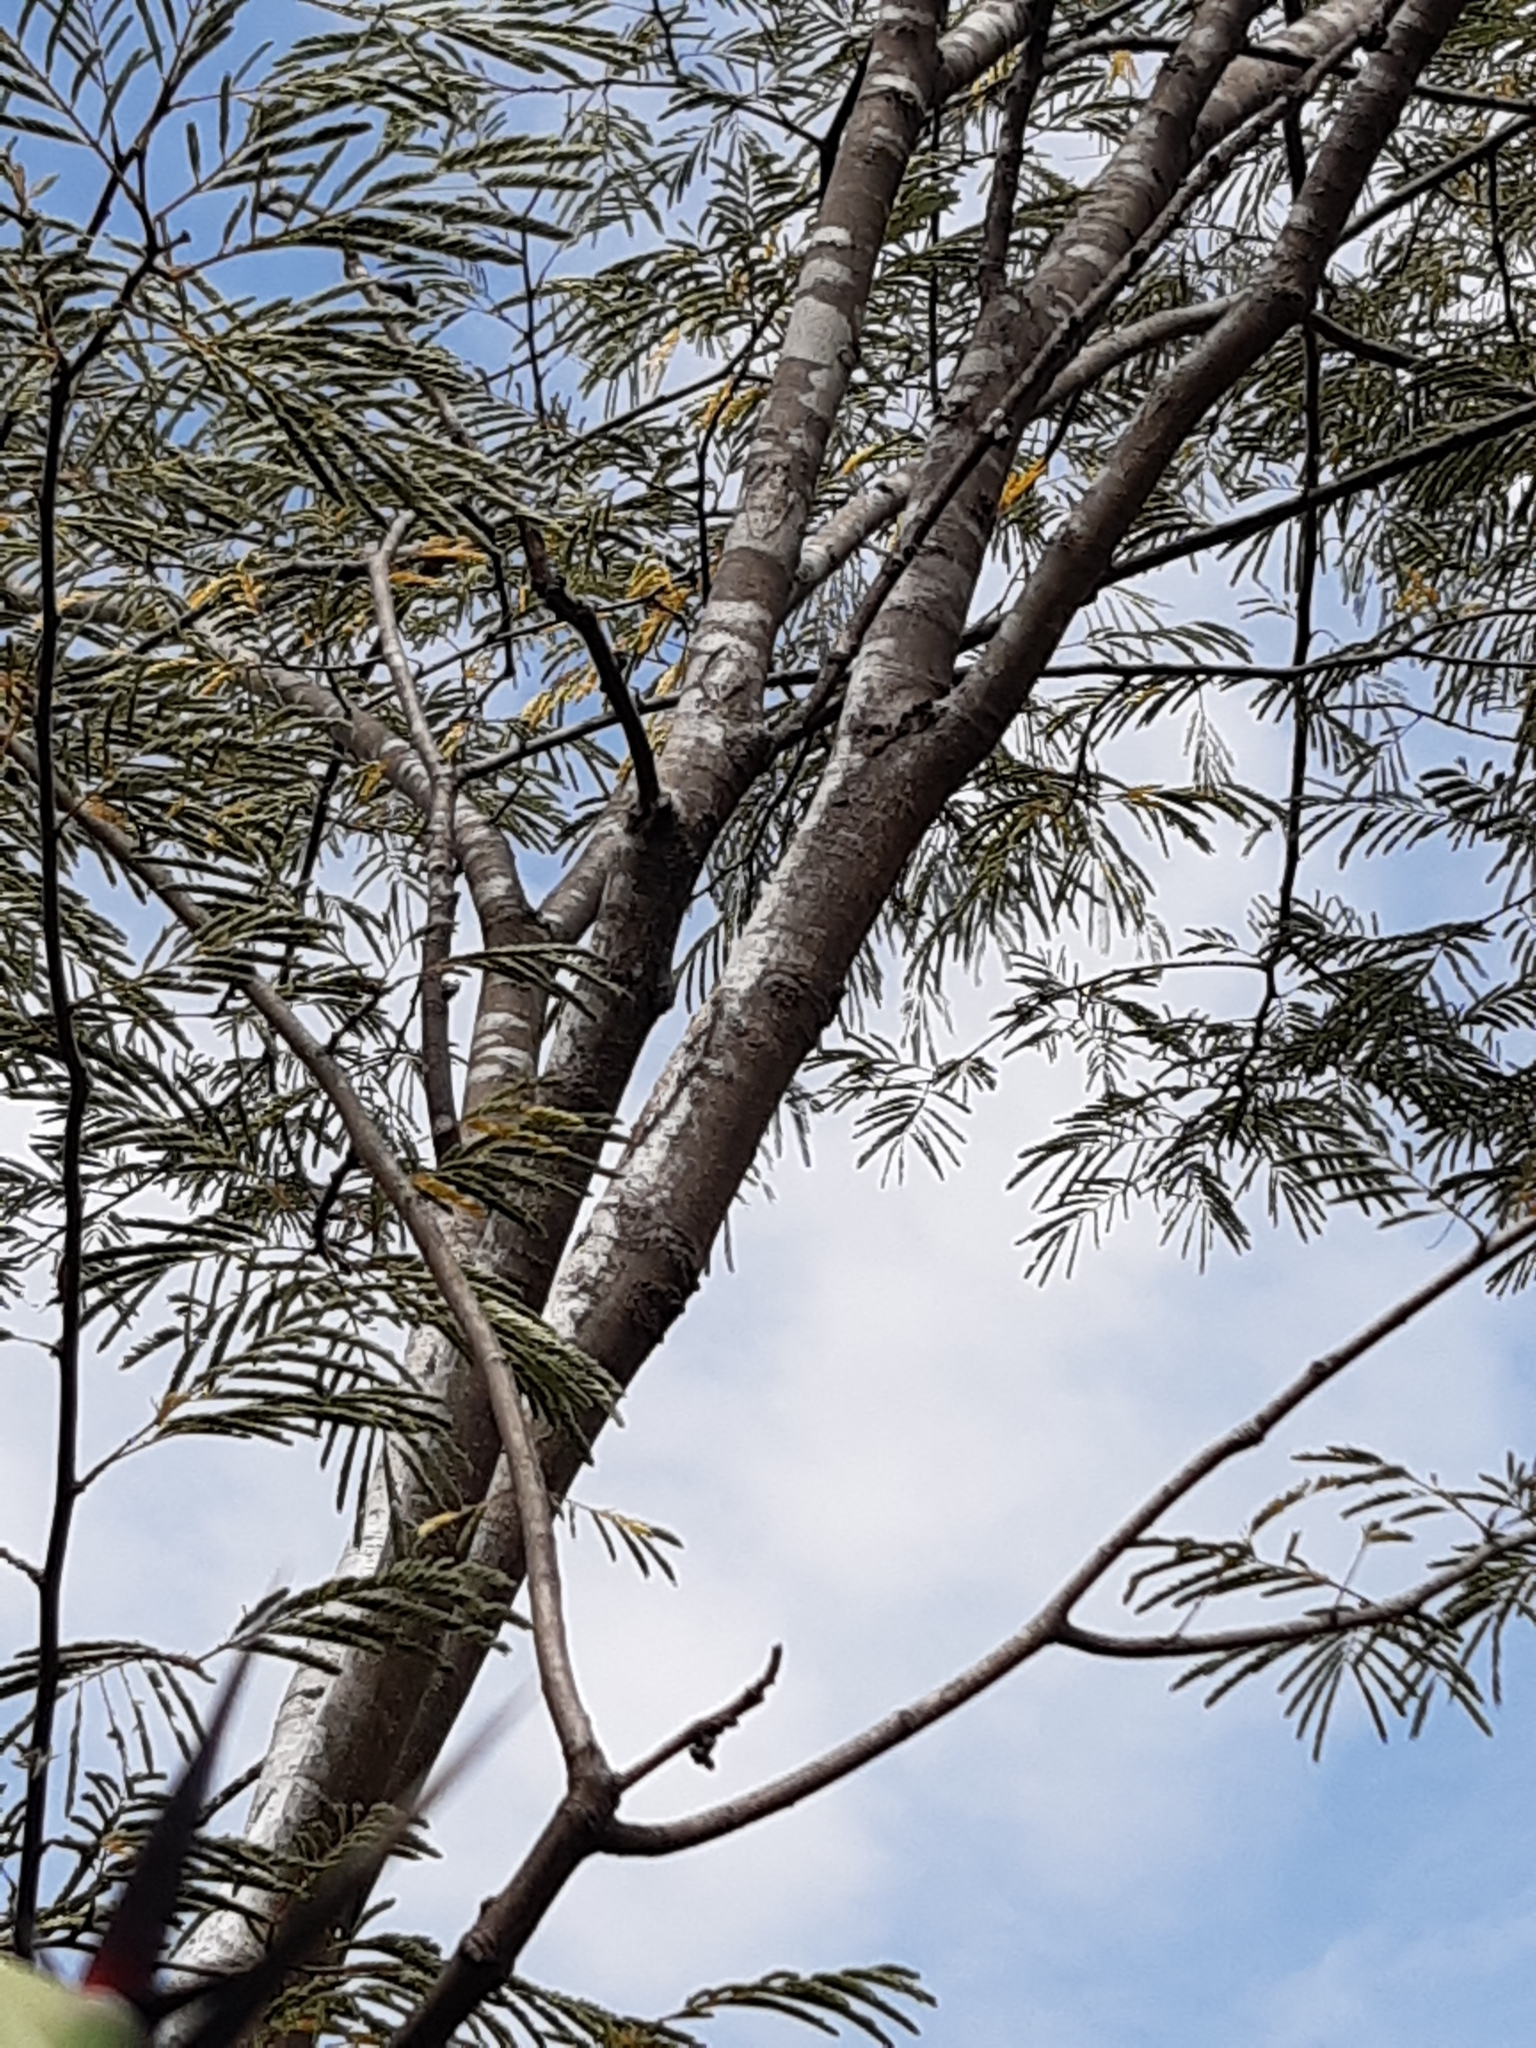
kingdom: Plantae
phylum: Tracheophyta
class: Magnoliopsida
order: Fabales
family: Fabaceae
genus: Lysiloma
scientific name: Lysiloma divaricatum
